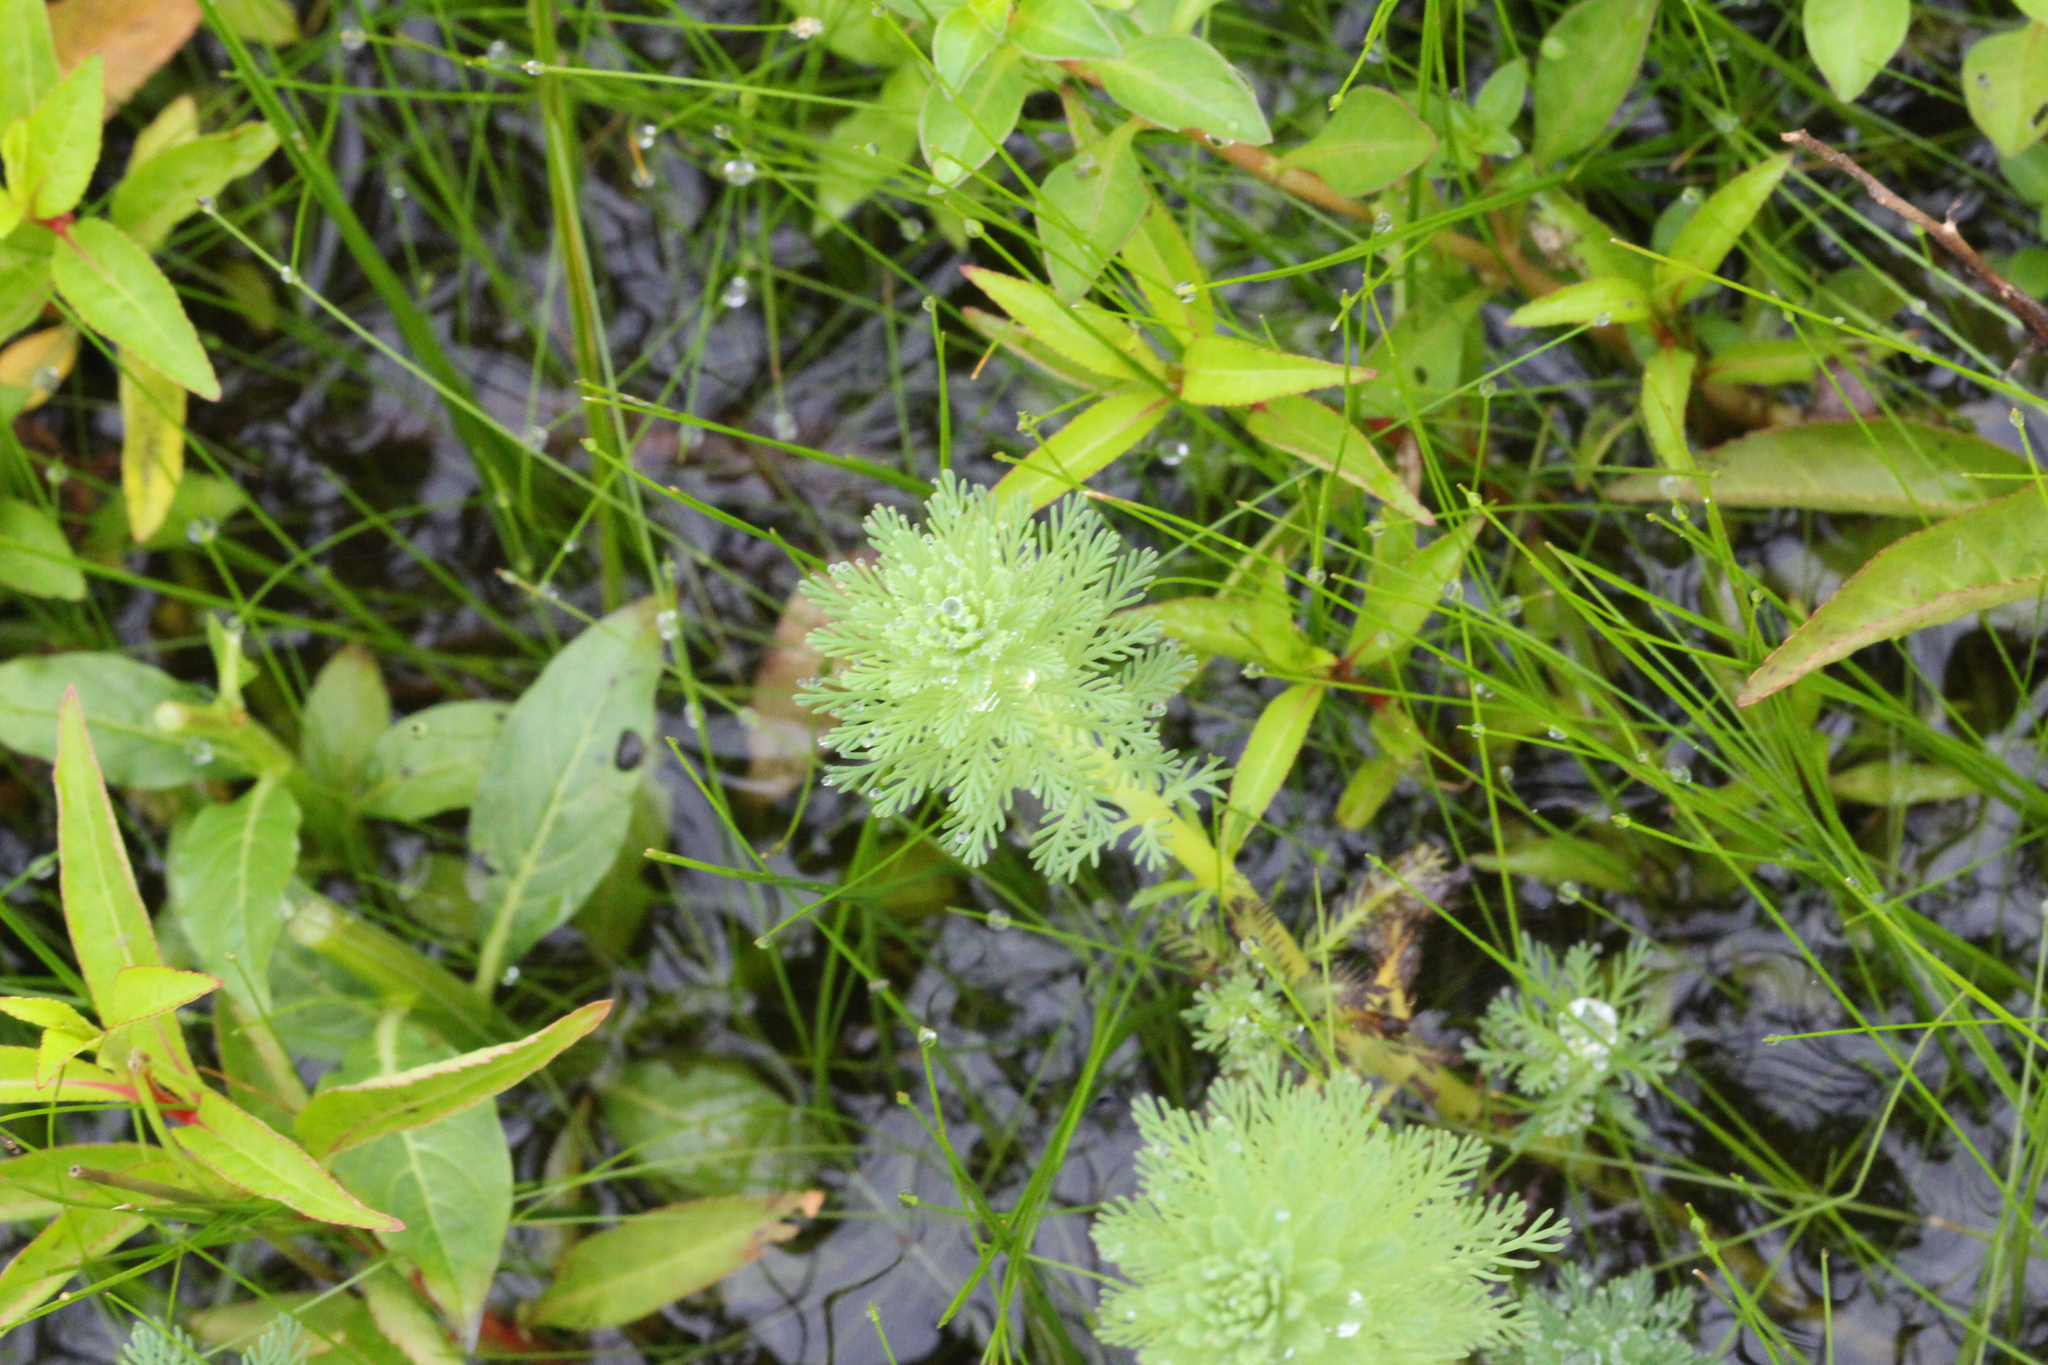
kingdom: Plantae
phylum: Tracheophyta
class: Magnoliopsida
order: Saxifragales
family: Haloragaceae
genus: Myriophyllum
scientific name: Myriophyllum aquaticum
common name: Parrot's feather
